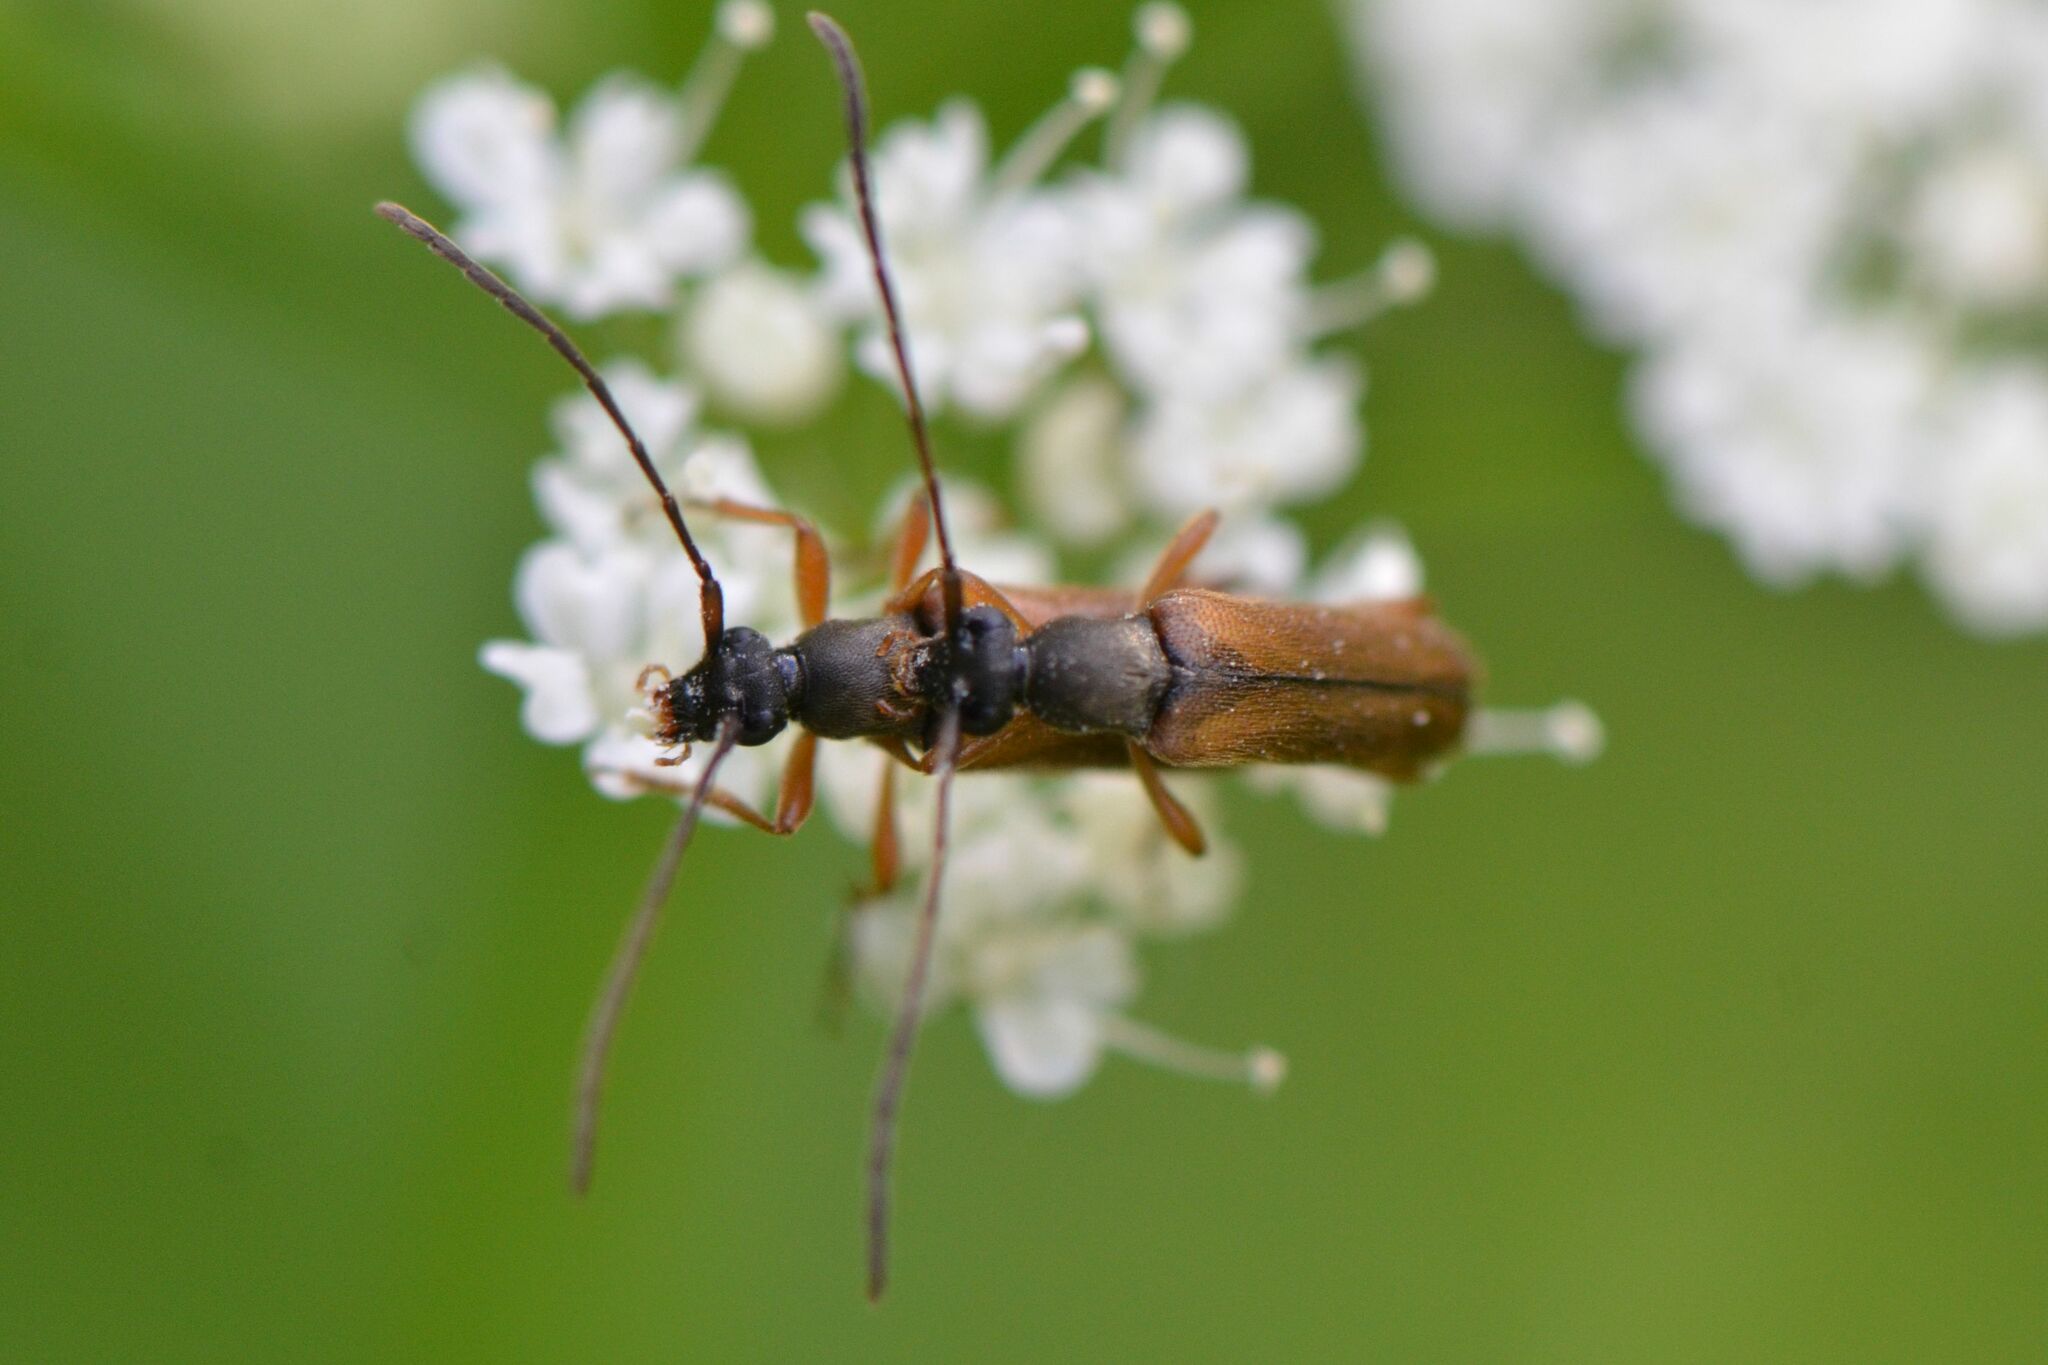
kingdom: Animalia
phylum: Arthropoda
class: Insecta
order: Coleoptera
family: Cerambycidae
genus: Alosterna
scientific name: Alosterna tabacicolor
